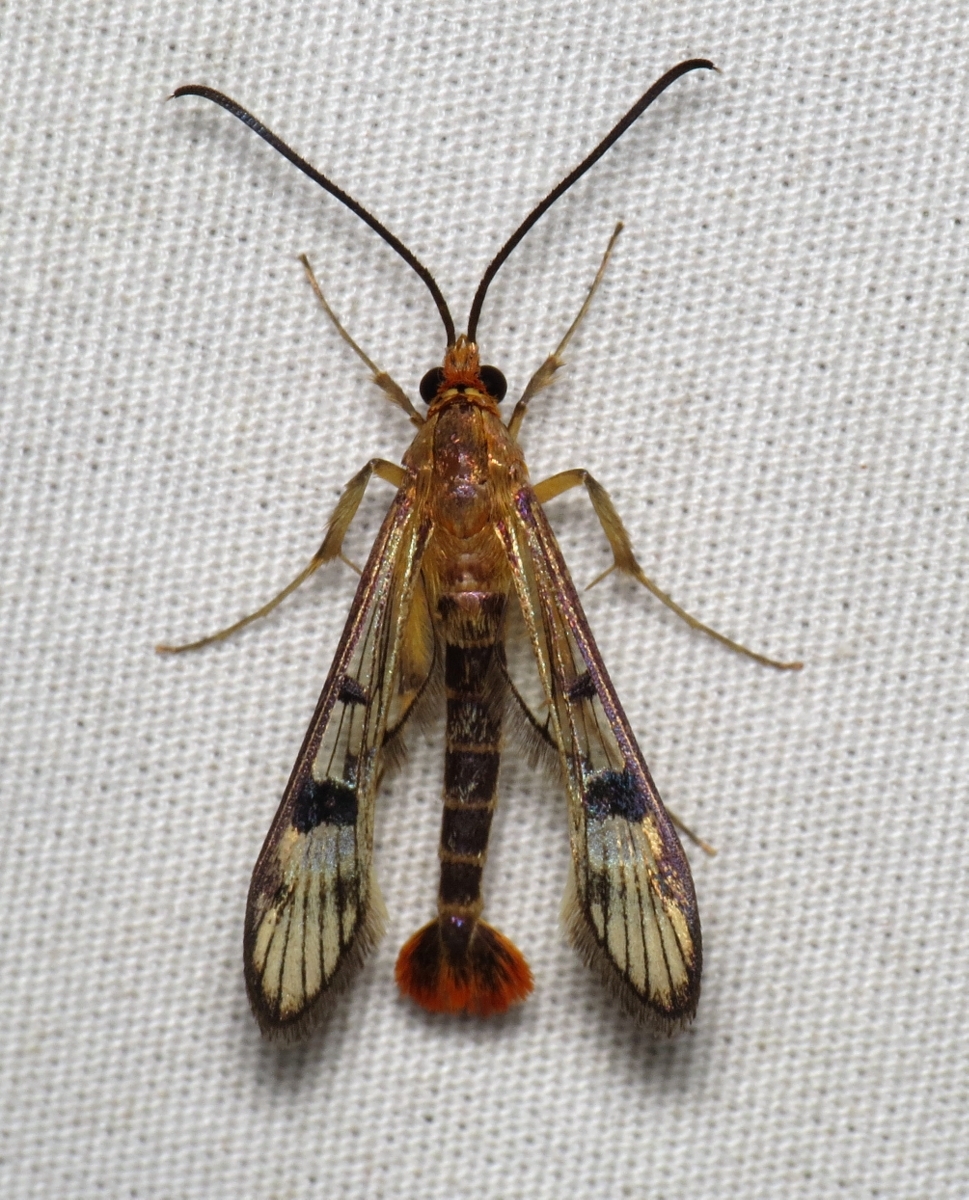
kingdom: Animalia
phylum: Arthropoda
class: Insecta
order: Lepidoptera
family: Sesiidae
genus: Synanthedon
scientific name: Synanthedon acerni
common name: Maple callus borer moth
